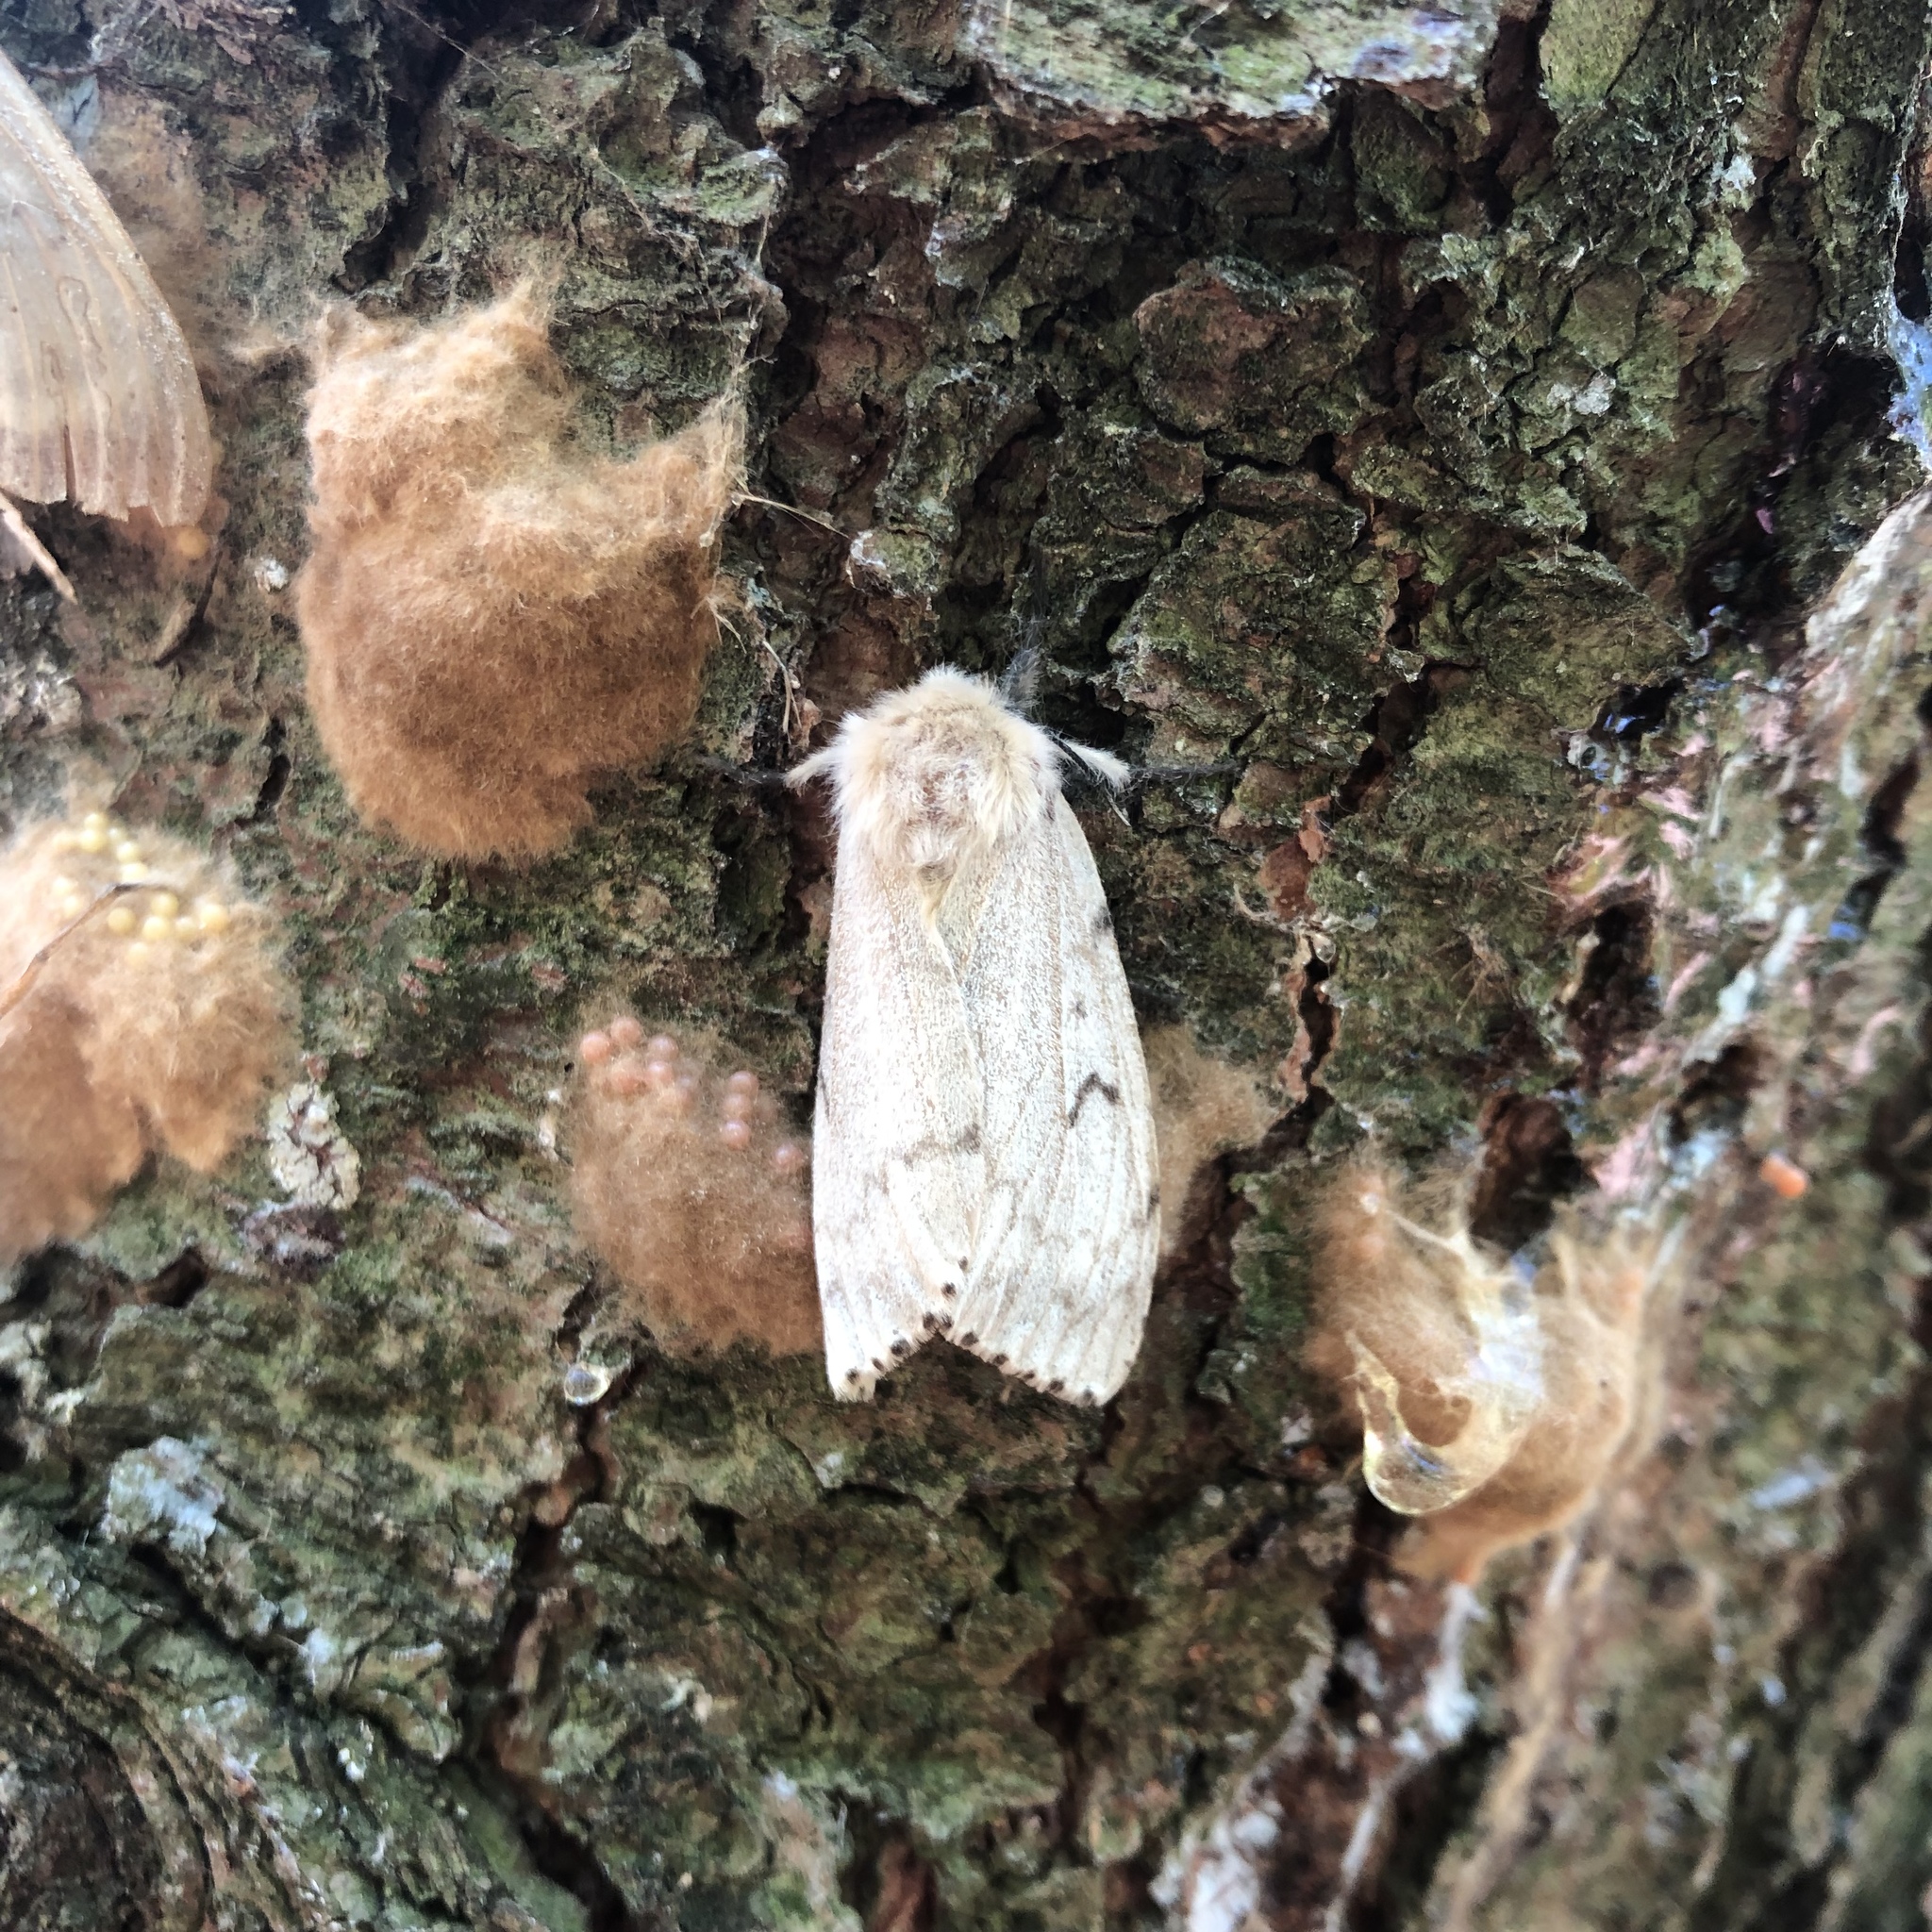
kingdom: Animalia
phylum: Arthropoda
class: Insecta
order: Lepidoptera
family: Erebidae
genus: Lymantria
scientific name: Lymantria dispar
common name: Gypsy moth
